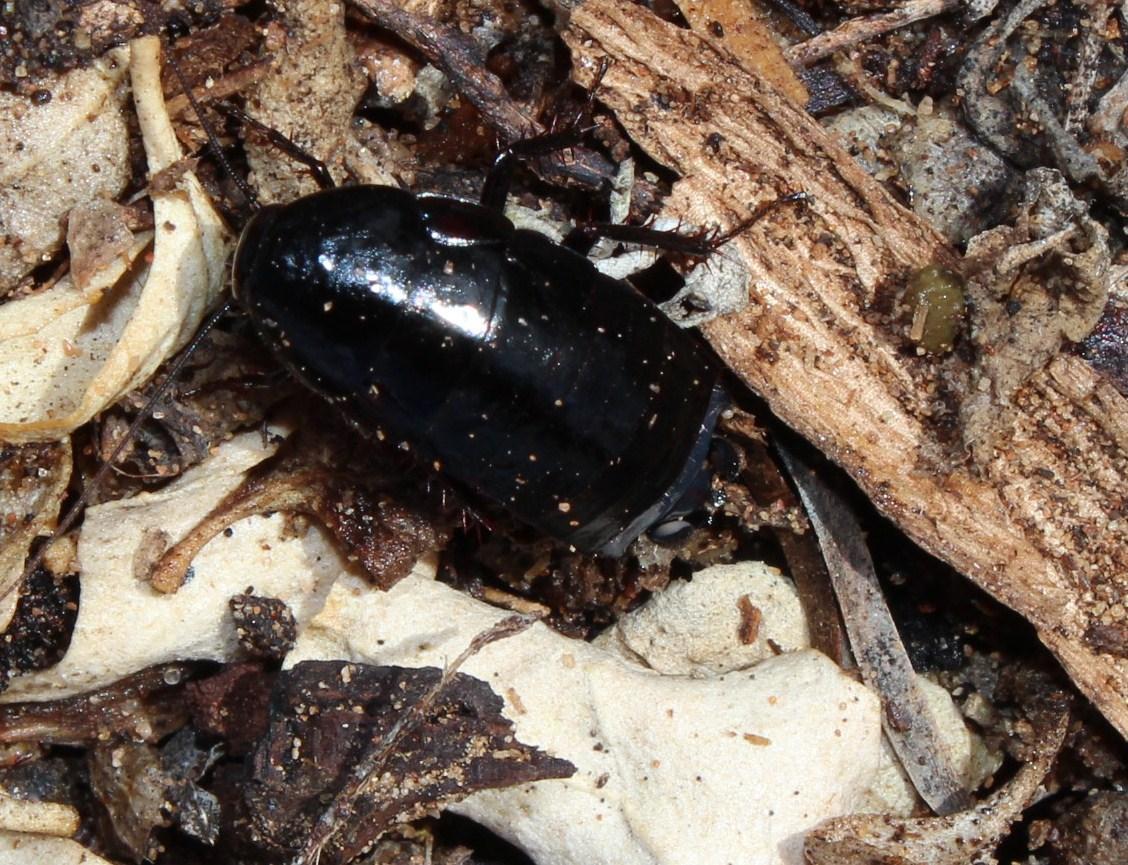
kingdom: Animalia
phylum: Arthropoda
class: Insecta
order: Blattodea
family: Blattidae
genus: Deropeltis
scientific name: Deropeltis erythrocephala
